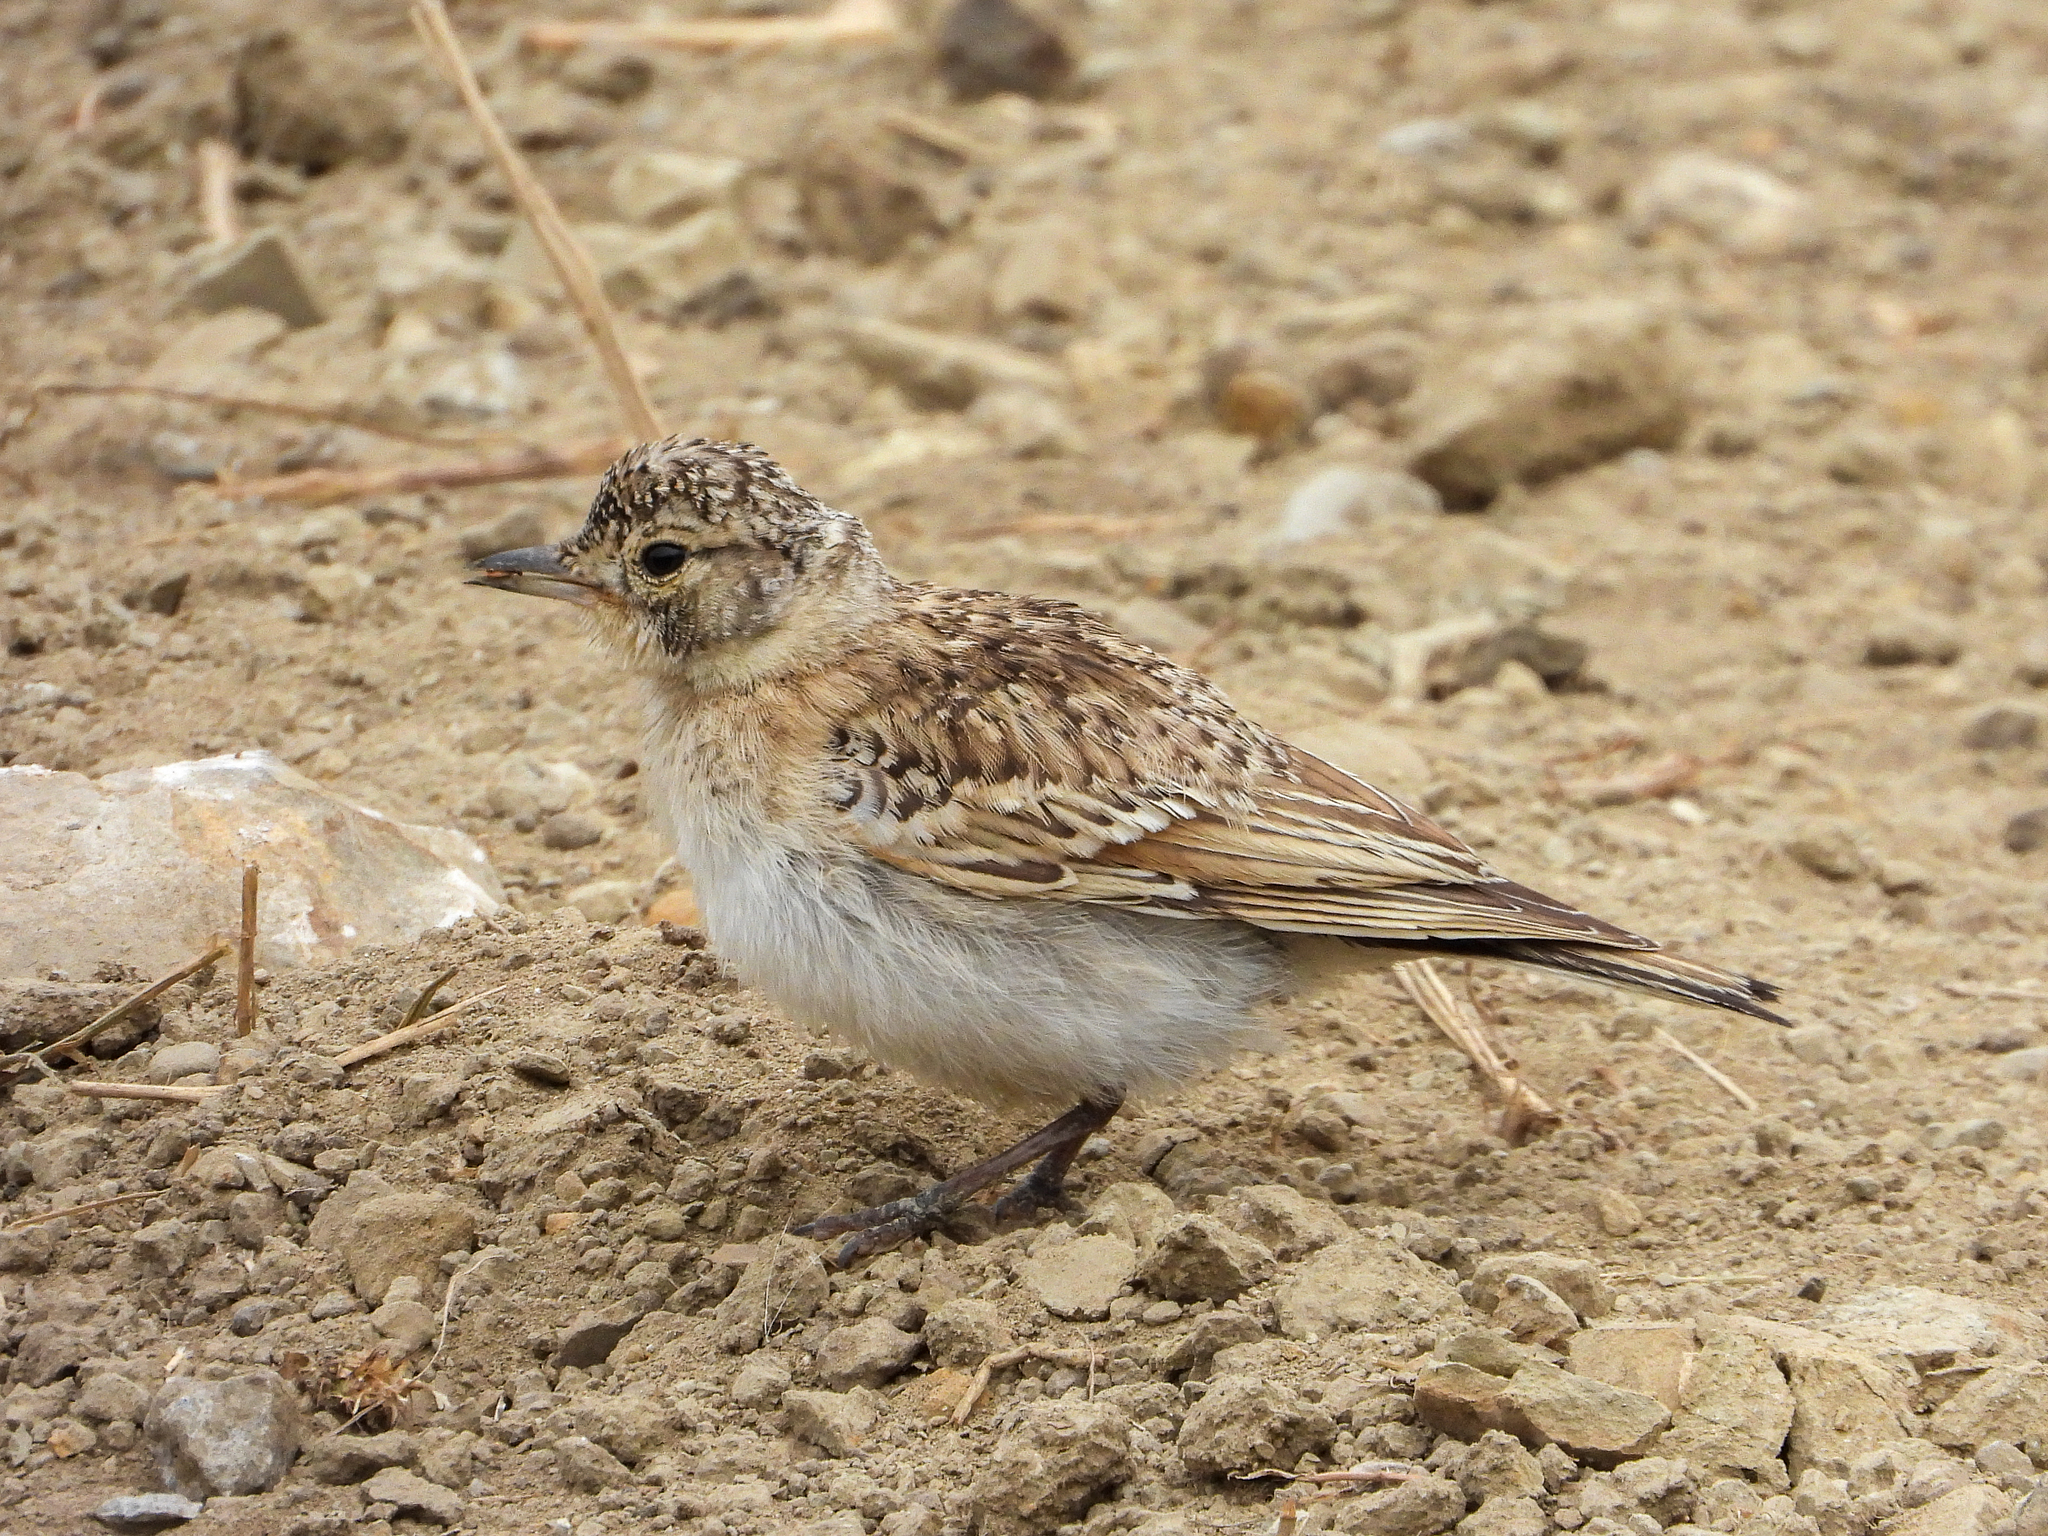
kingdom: Animalia
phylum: Chordata
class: Aves
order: Passeriformes
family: Alaudidae
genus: Eremophila
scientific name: Eremophila alpestris
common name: Horned lark
